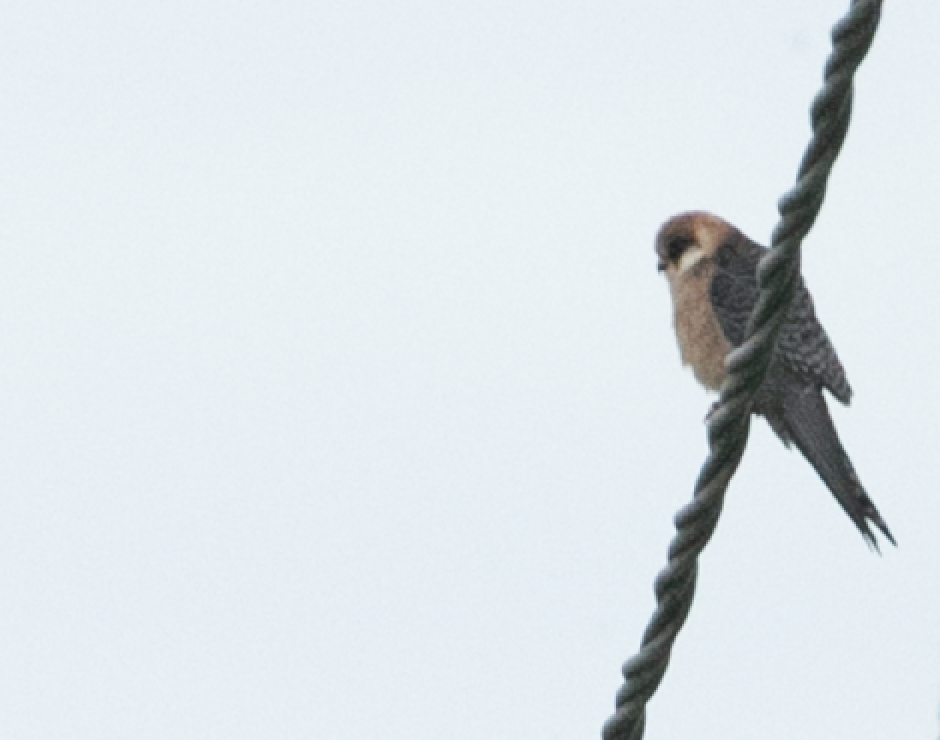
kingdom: Animalia
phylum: Chordata
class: Aves
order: Falconiformes
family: Falconidae
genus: Falco
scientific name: Falco vespertinus
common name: Red-footed falcon
